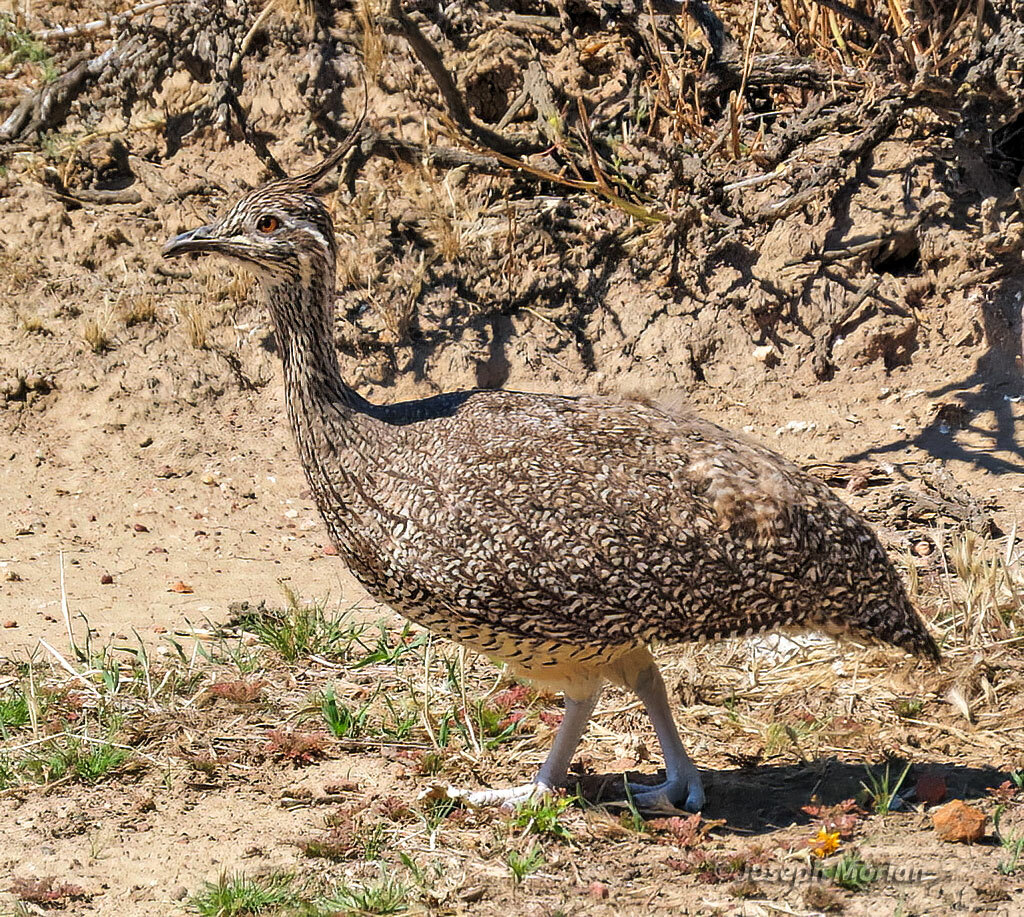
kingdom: Animalia
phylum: Chordata
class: Aves
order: Tinamiformes
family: Tinamidae
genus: Eudromia
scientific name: Eudromia elegans
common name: Elegant crested tinamou
